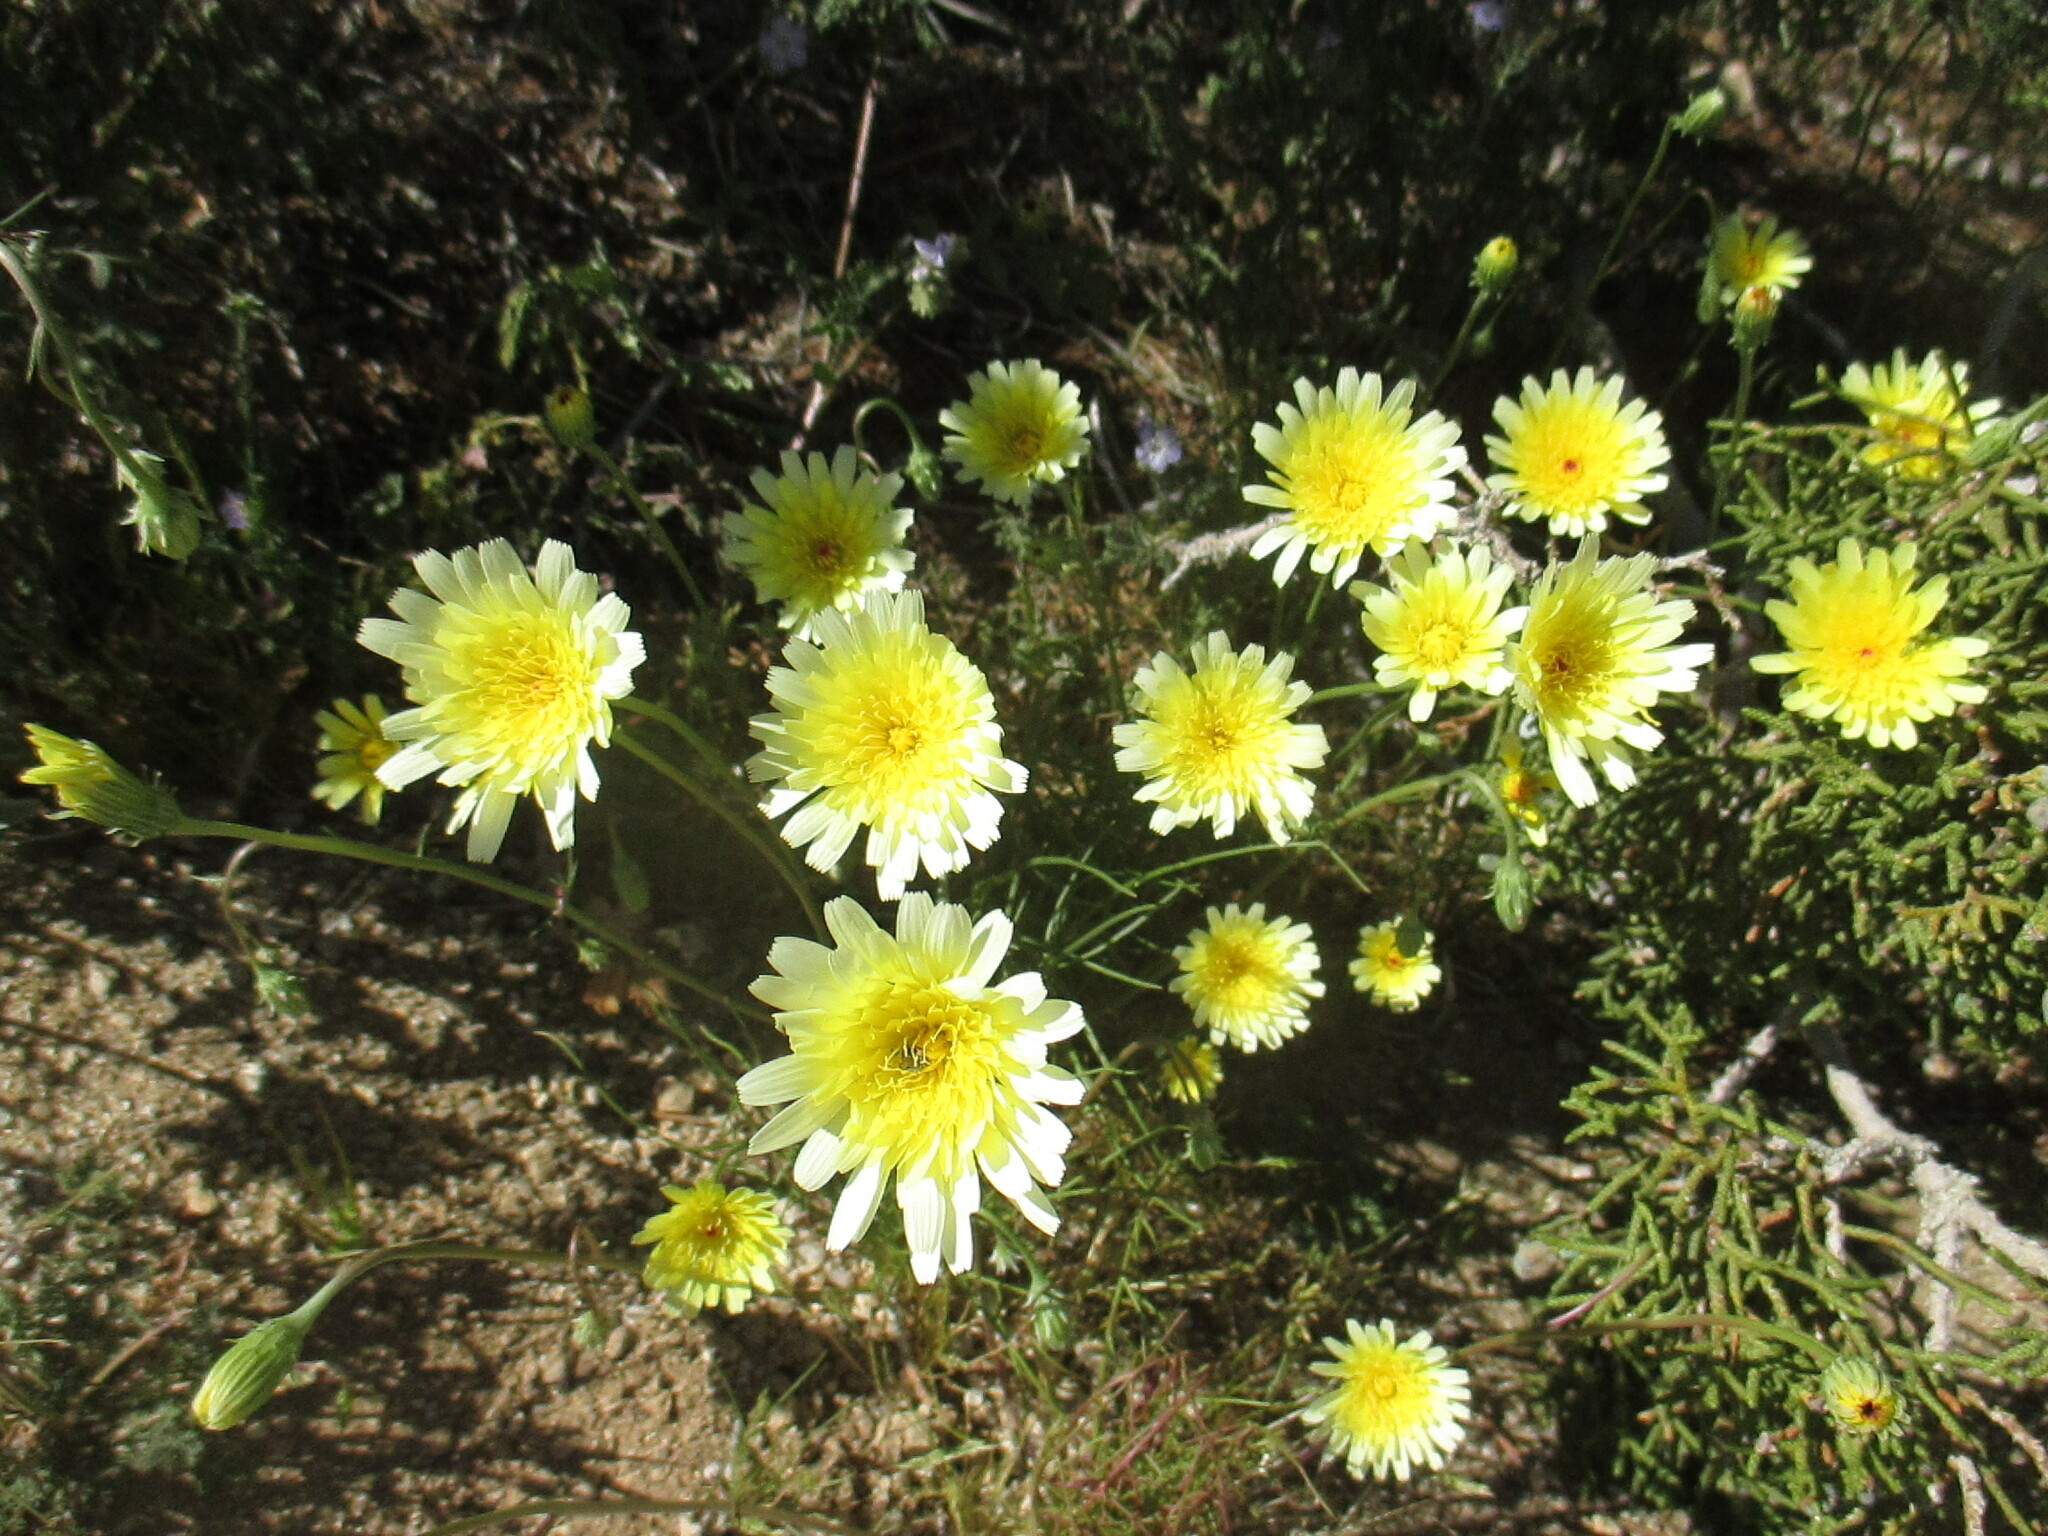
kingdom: Plantae
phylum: Tracheophyta
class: Magnoliopsida
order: Asterales
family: Asteraceae
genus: Malacothrix
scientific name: Malacothrix glabrata
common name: Smooth desert-dandelion
